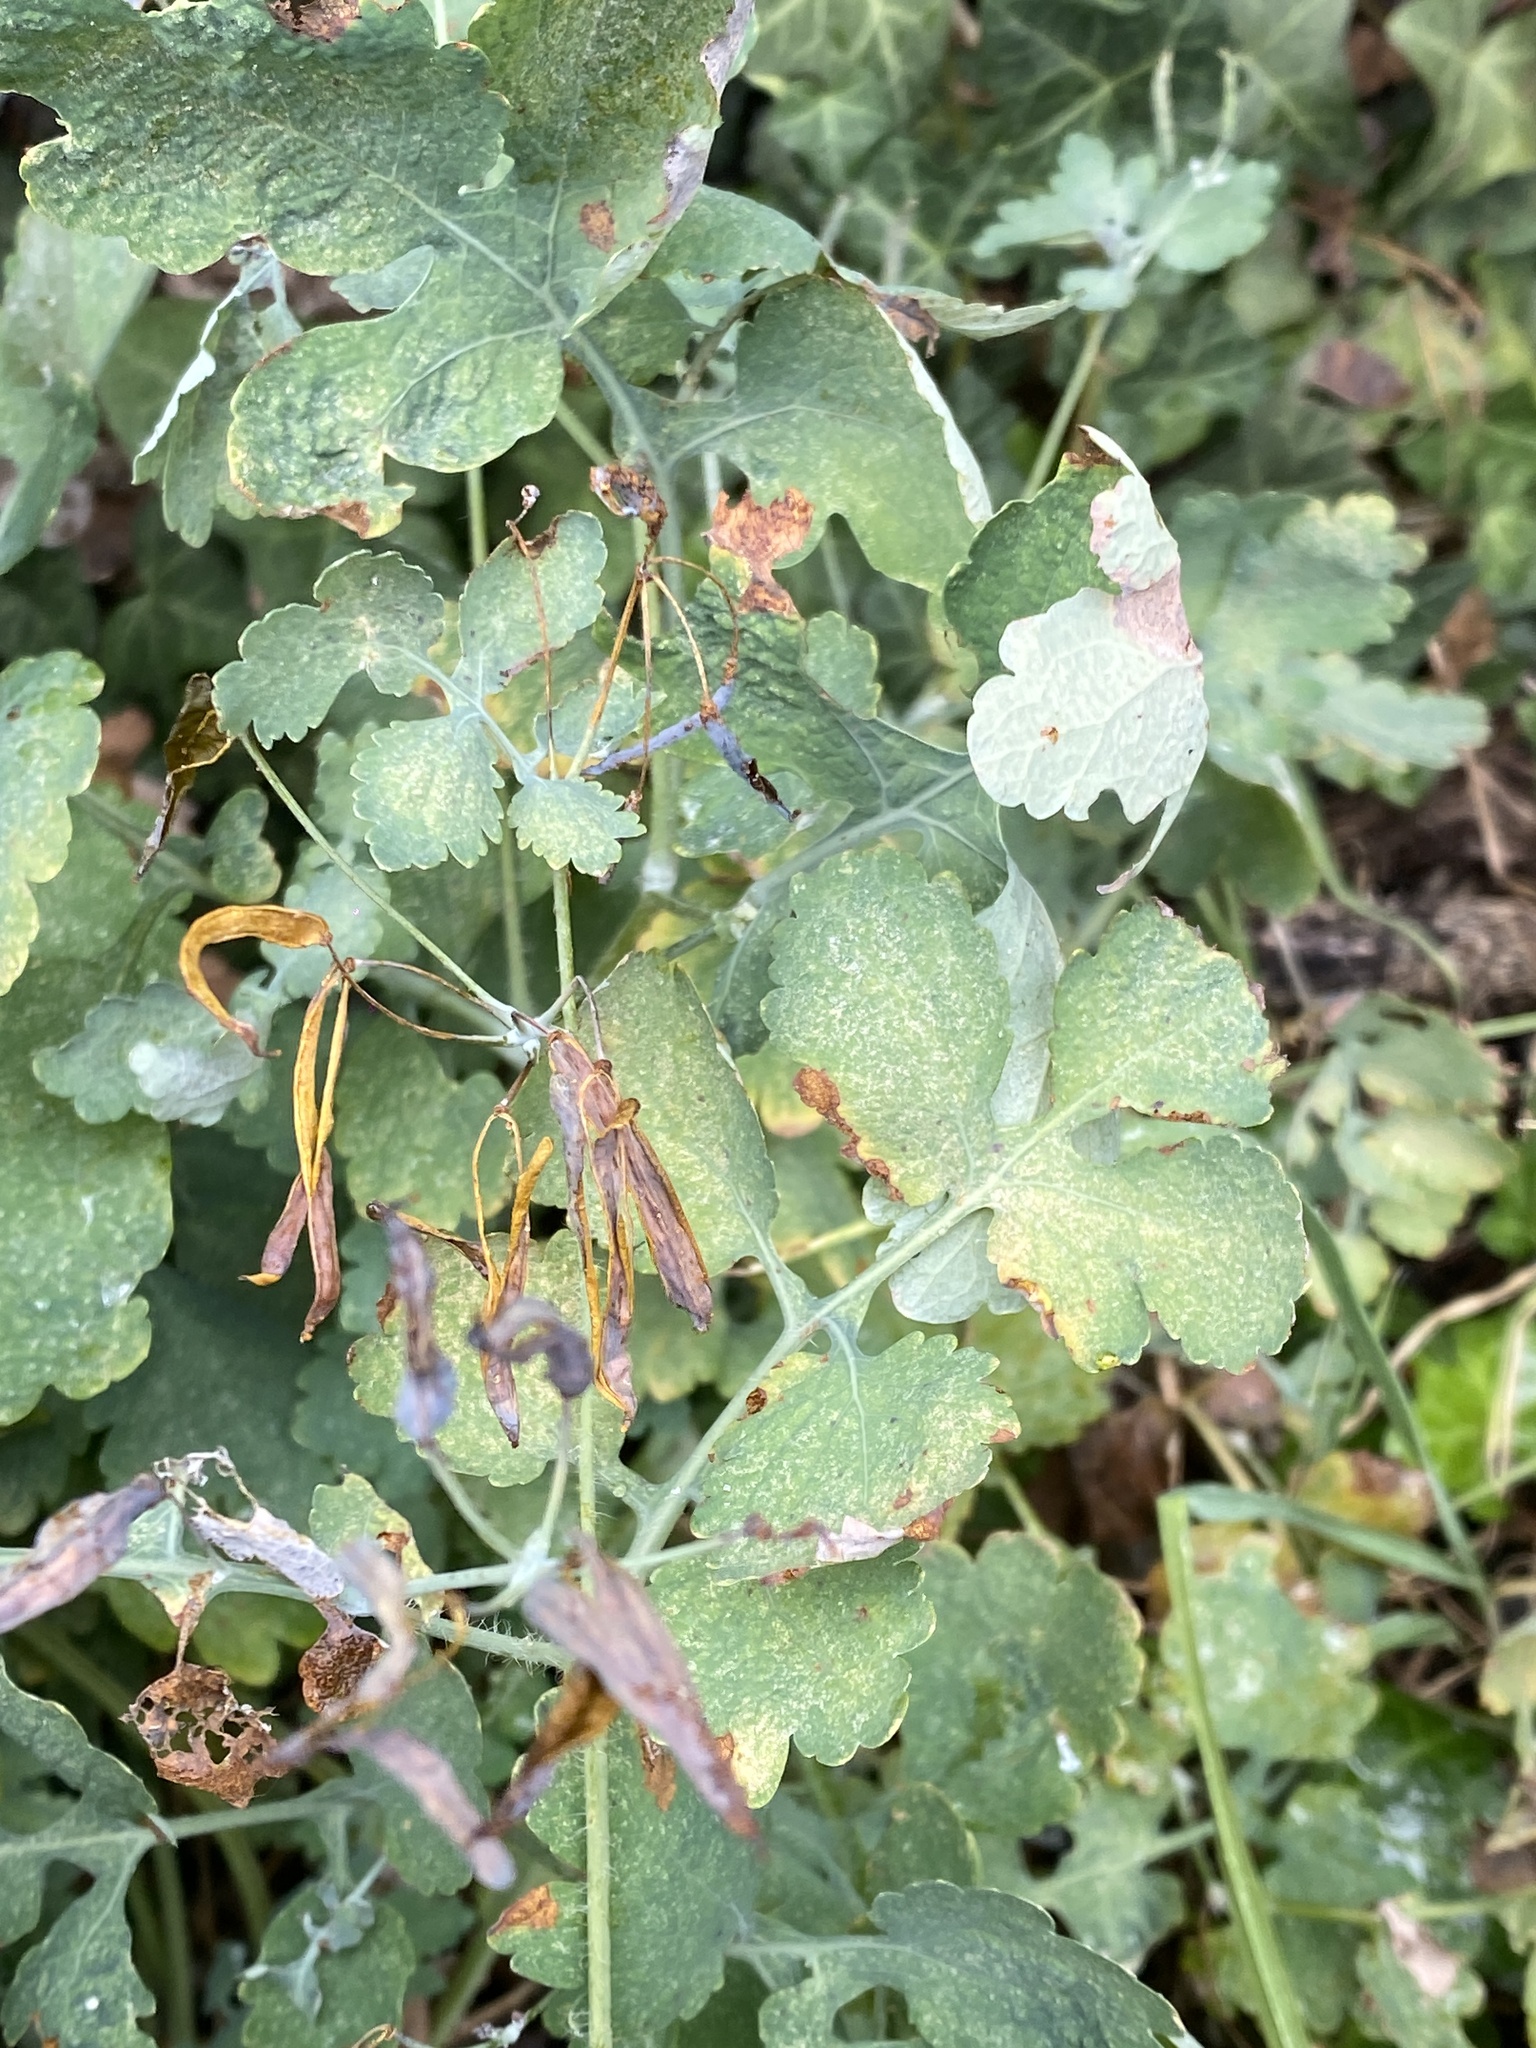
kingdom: Plantae
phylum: Tracheophyta
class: Magnoliopsida
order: Ranunculales
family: Papaveraceae
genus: Chelidonium
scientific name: Chelidonium majus
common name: Greater celandine
